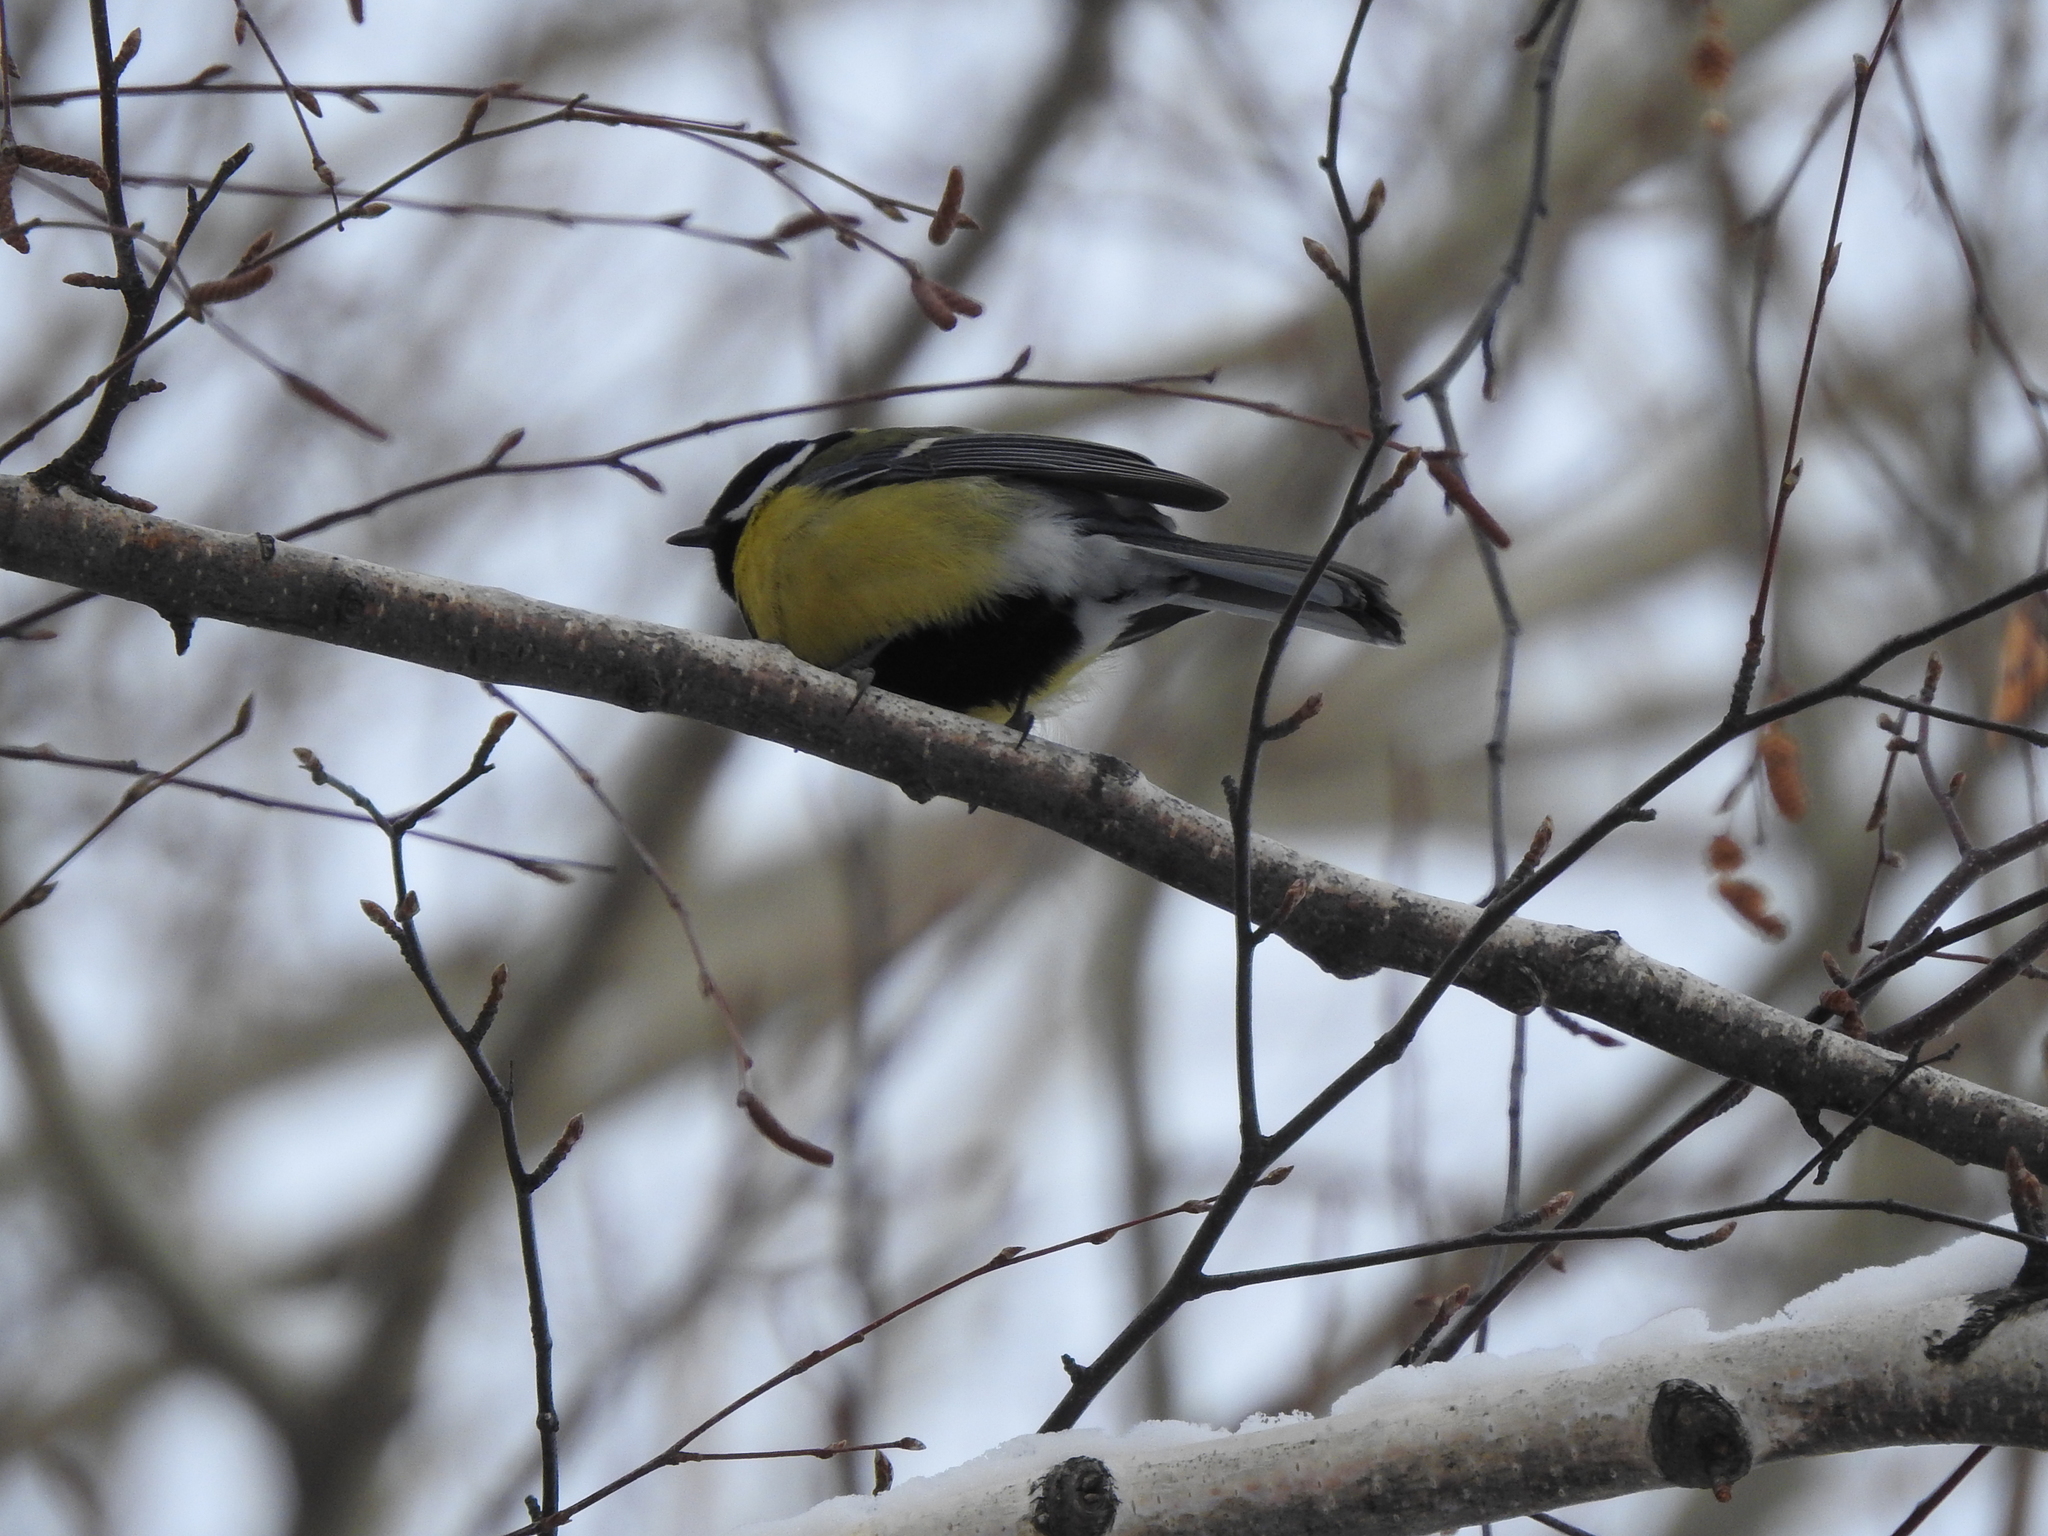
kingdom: Animalia
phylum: Chordata
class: Aves
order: Passeriformes
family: Paridae
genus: Parus
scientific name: Parus major
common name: Great tit
